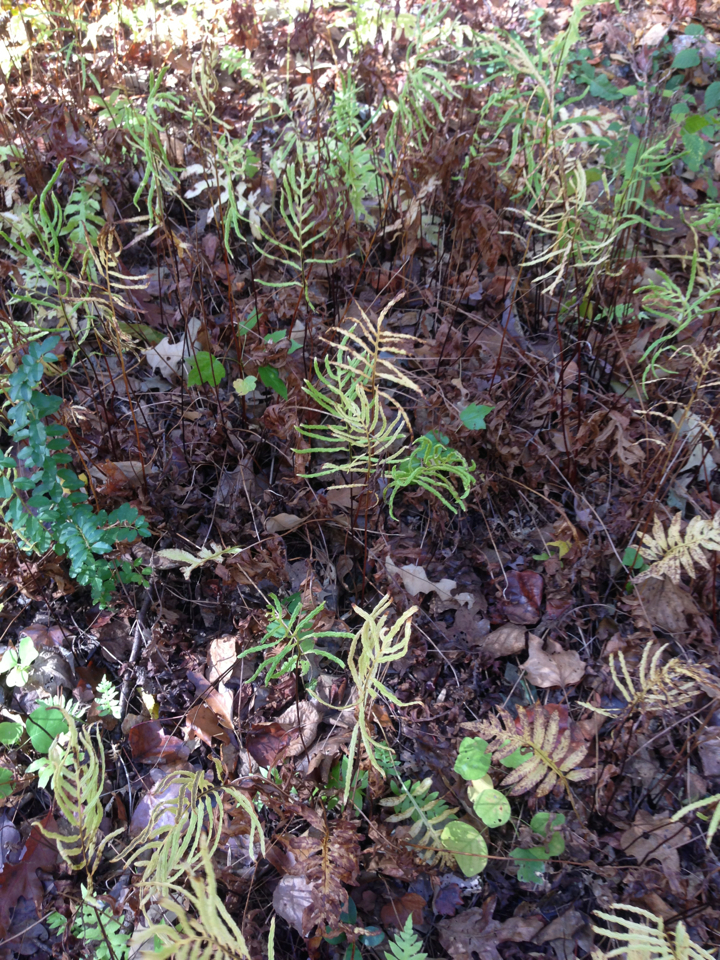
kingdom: Plantae
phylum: Tracheophyta
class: Polypodiopsida
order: Polypodiales
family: Blechnaceae
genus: Lorinseria
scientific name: Lorinseria areolata
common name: Dwarf chain fern
